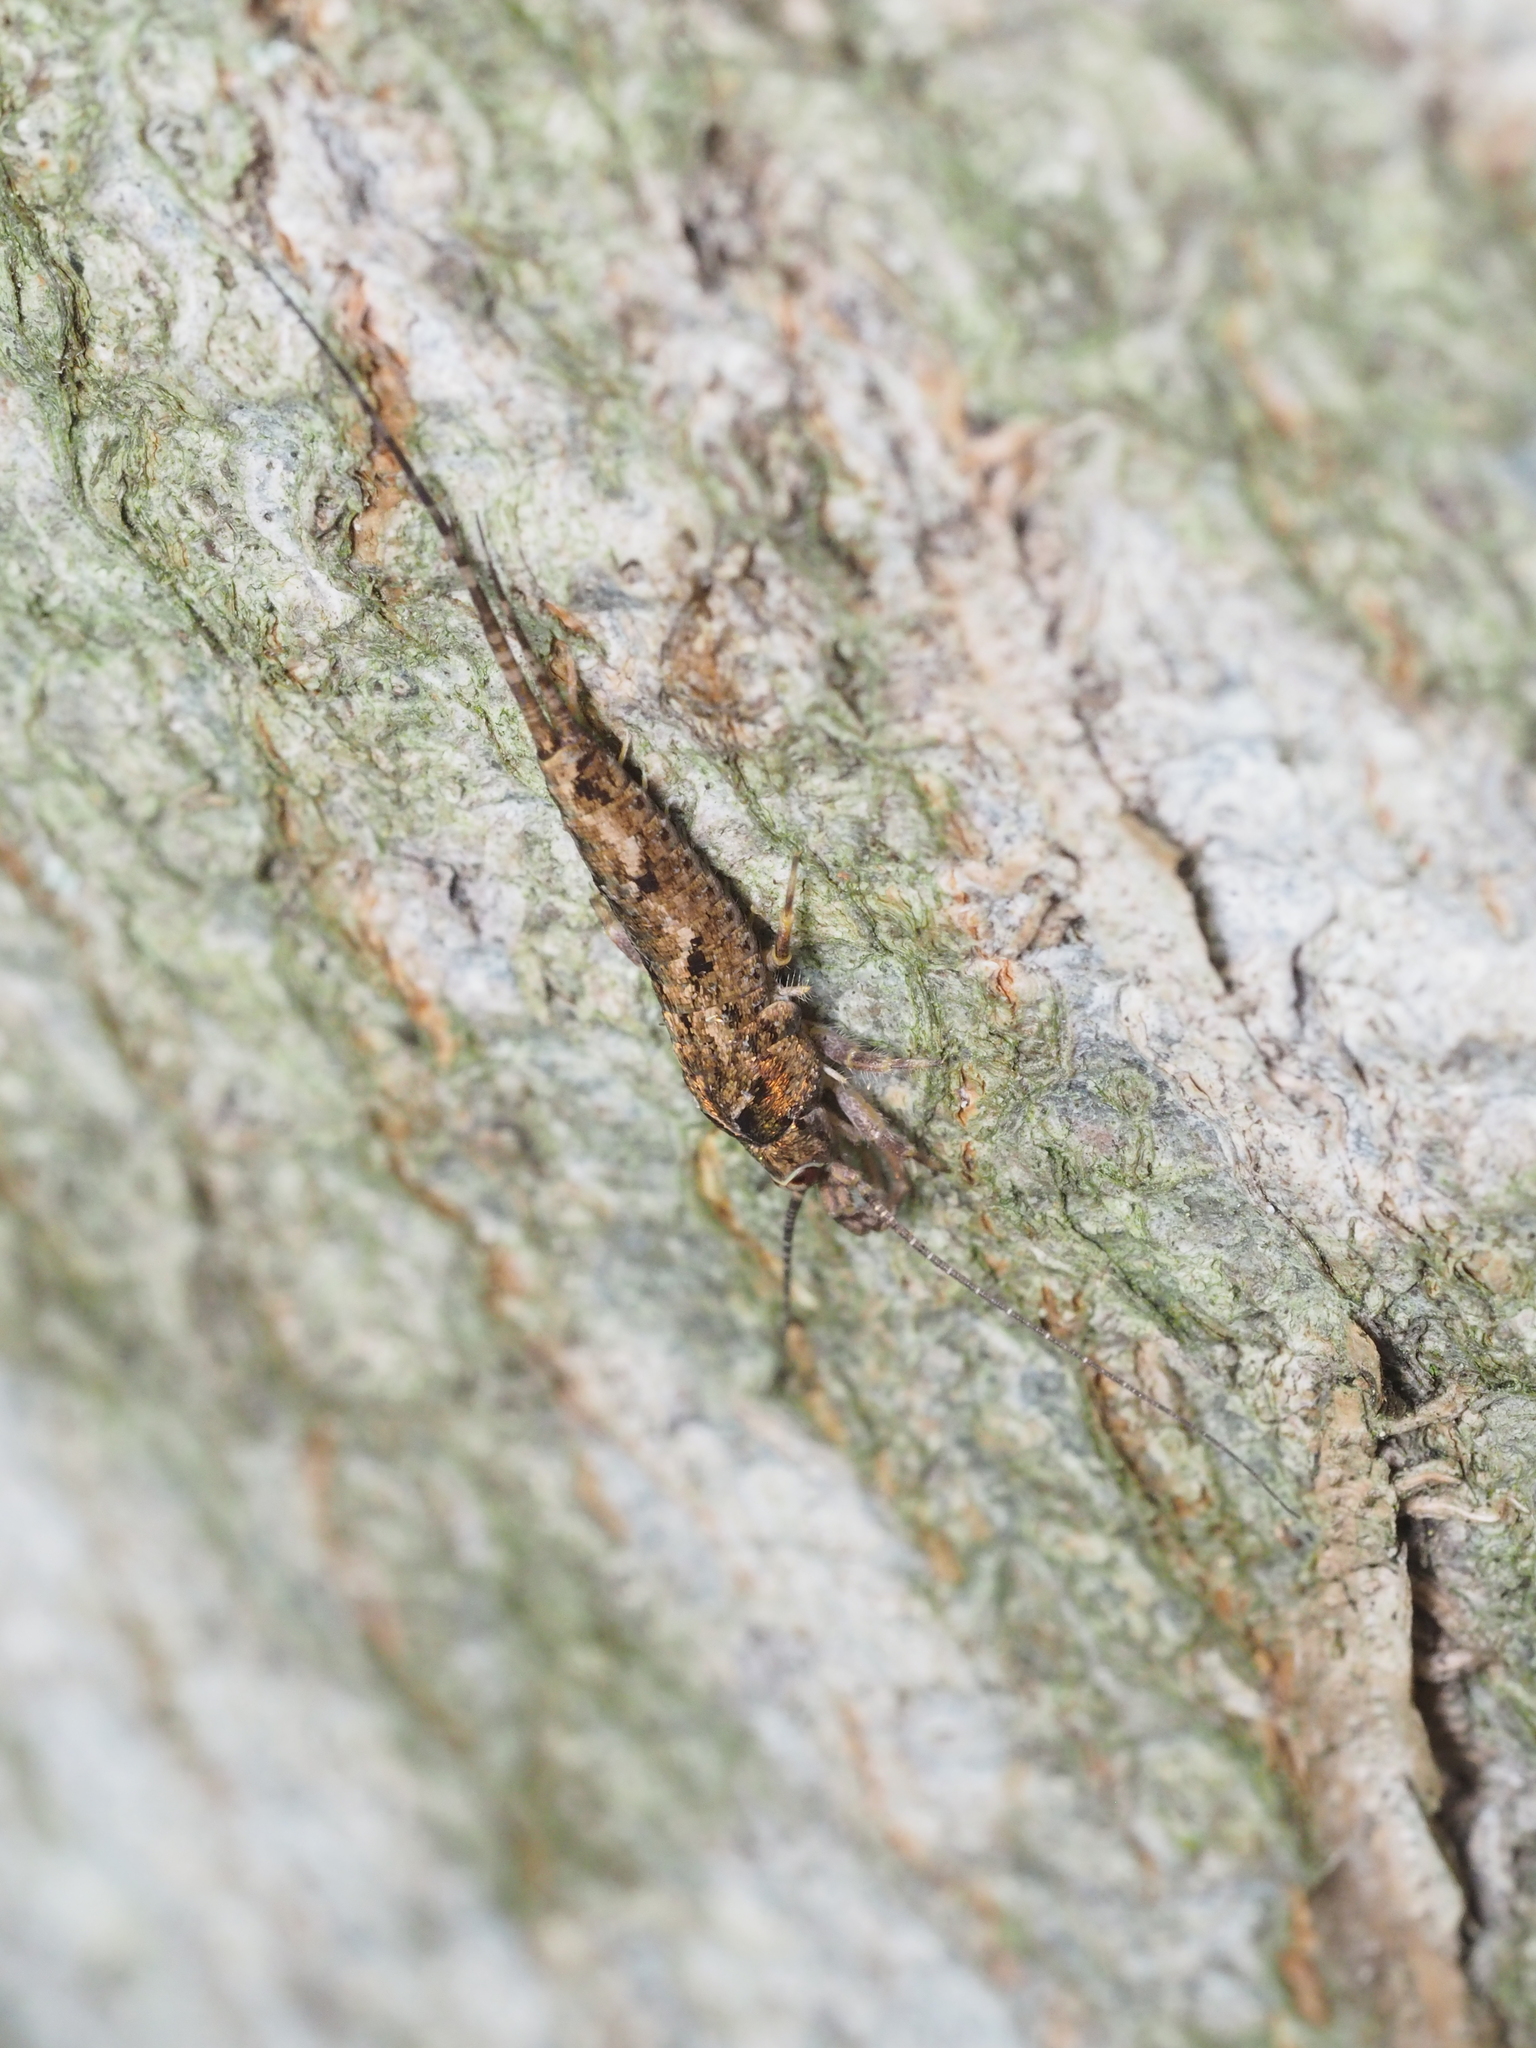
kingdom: Animalia
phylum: Arthropoda
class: Insecta
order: Archaeognatha
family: Machilidae
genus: Lepismachilis
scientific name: Lepismachilis rozsypali
